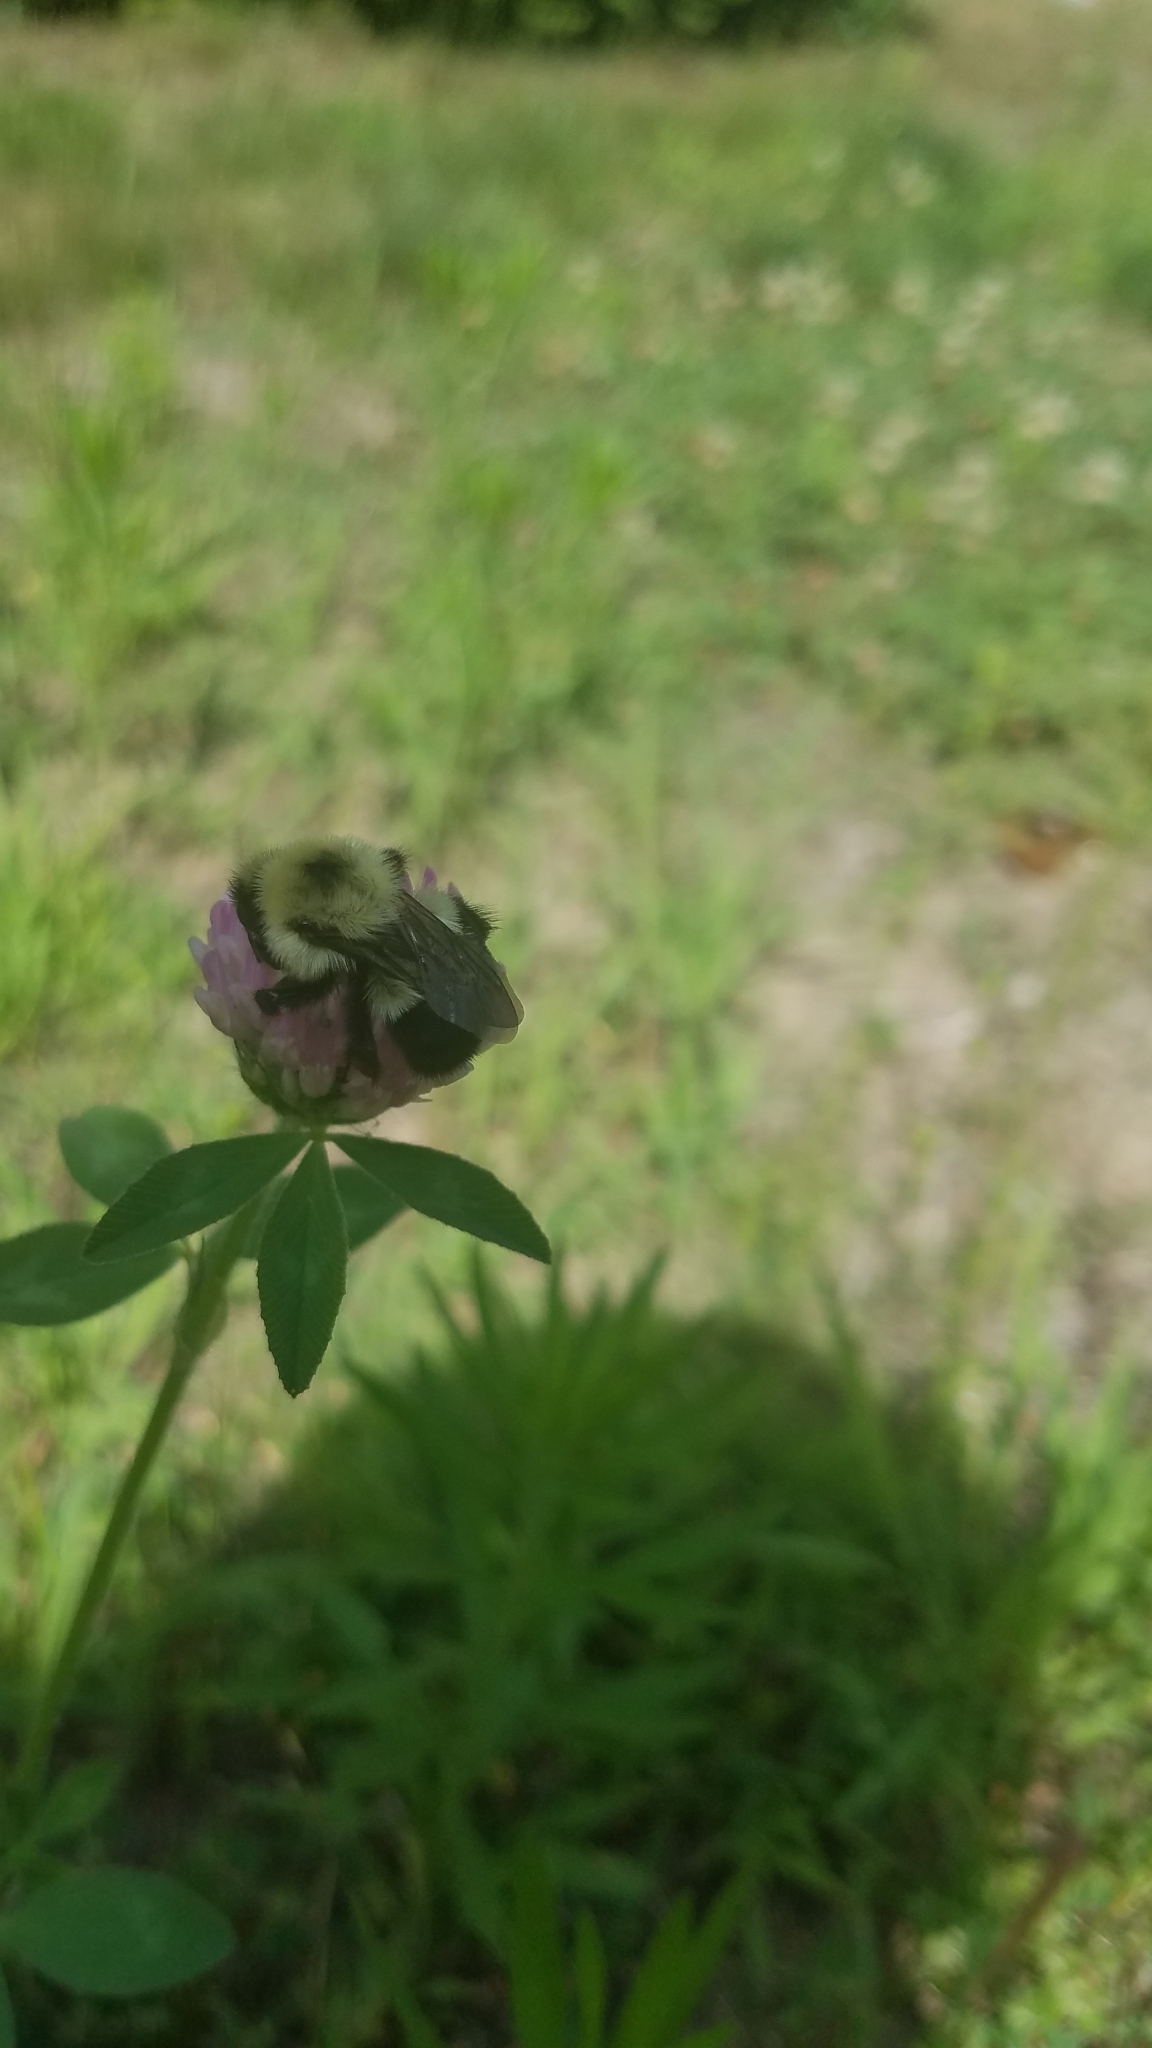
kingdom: Animalia
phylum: Arthropoda
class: Insecta
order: Hymenoptera
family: Apidae
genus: Bombus
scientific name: Bombus bimaculatus
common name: Two-spotted bumble bee
